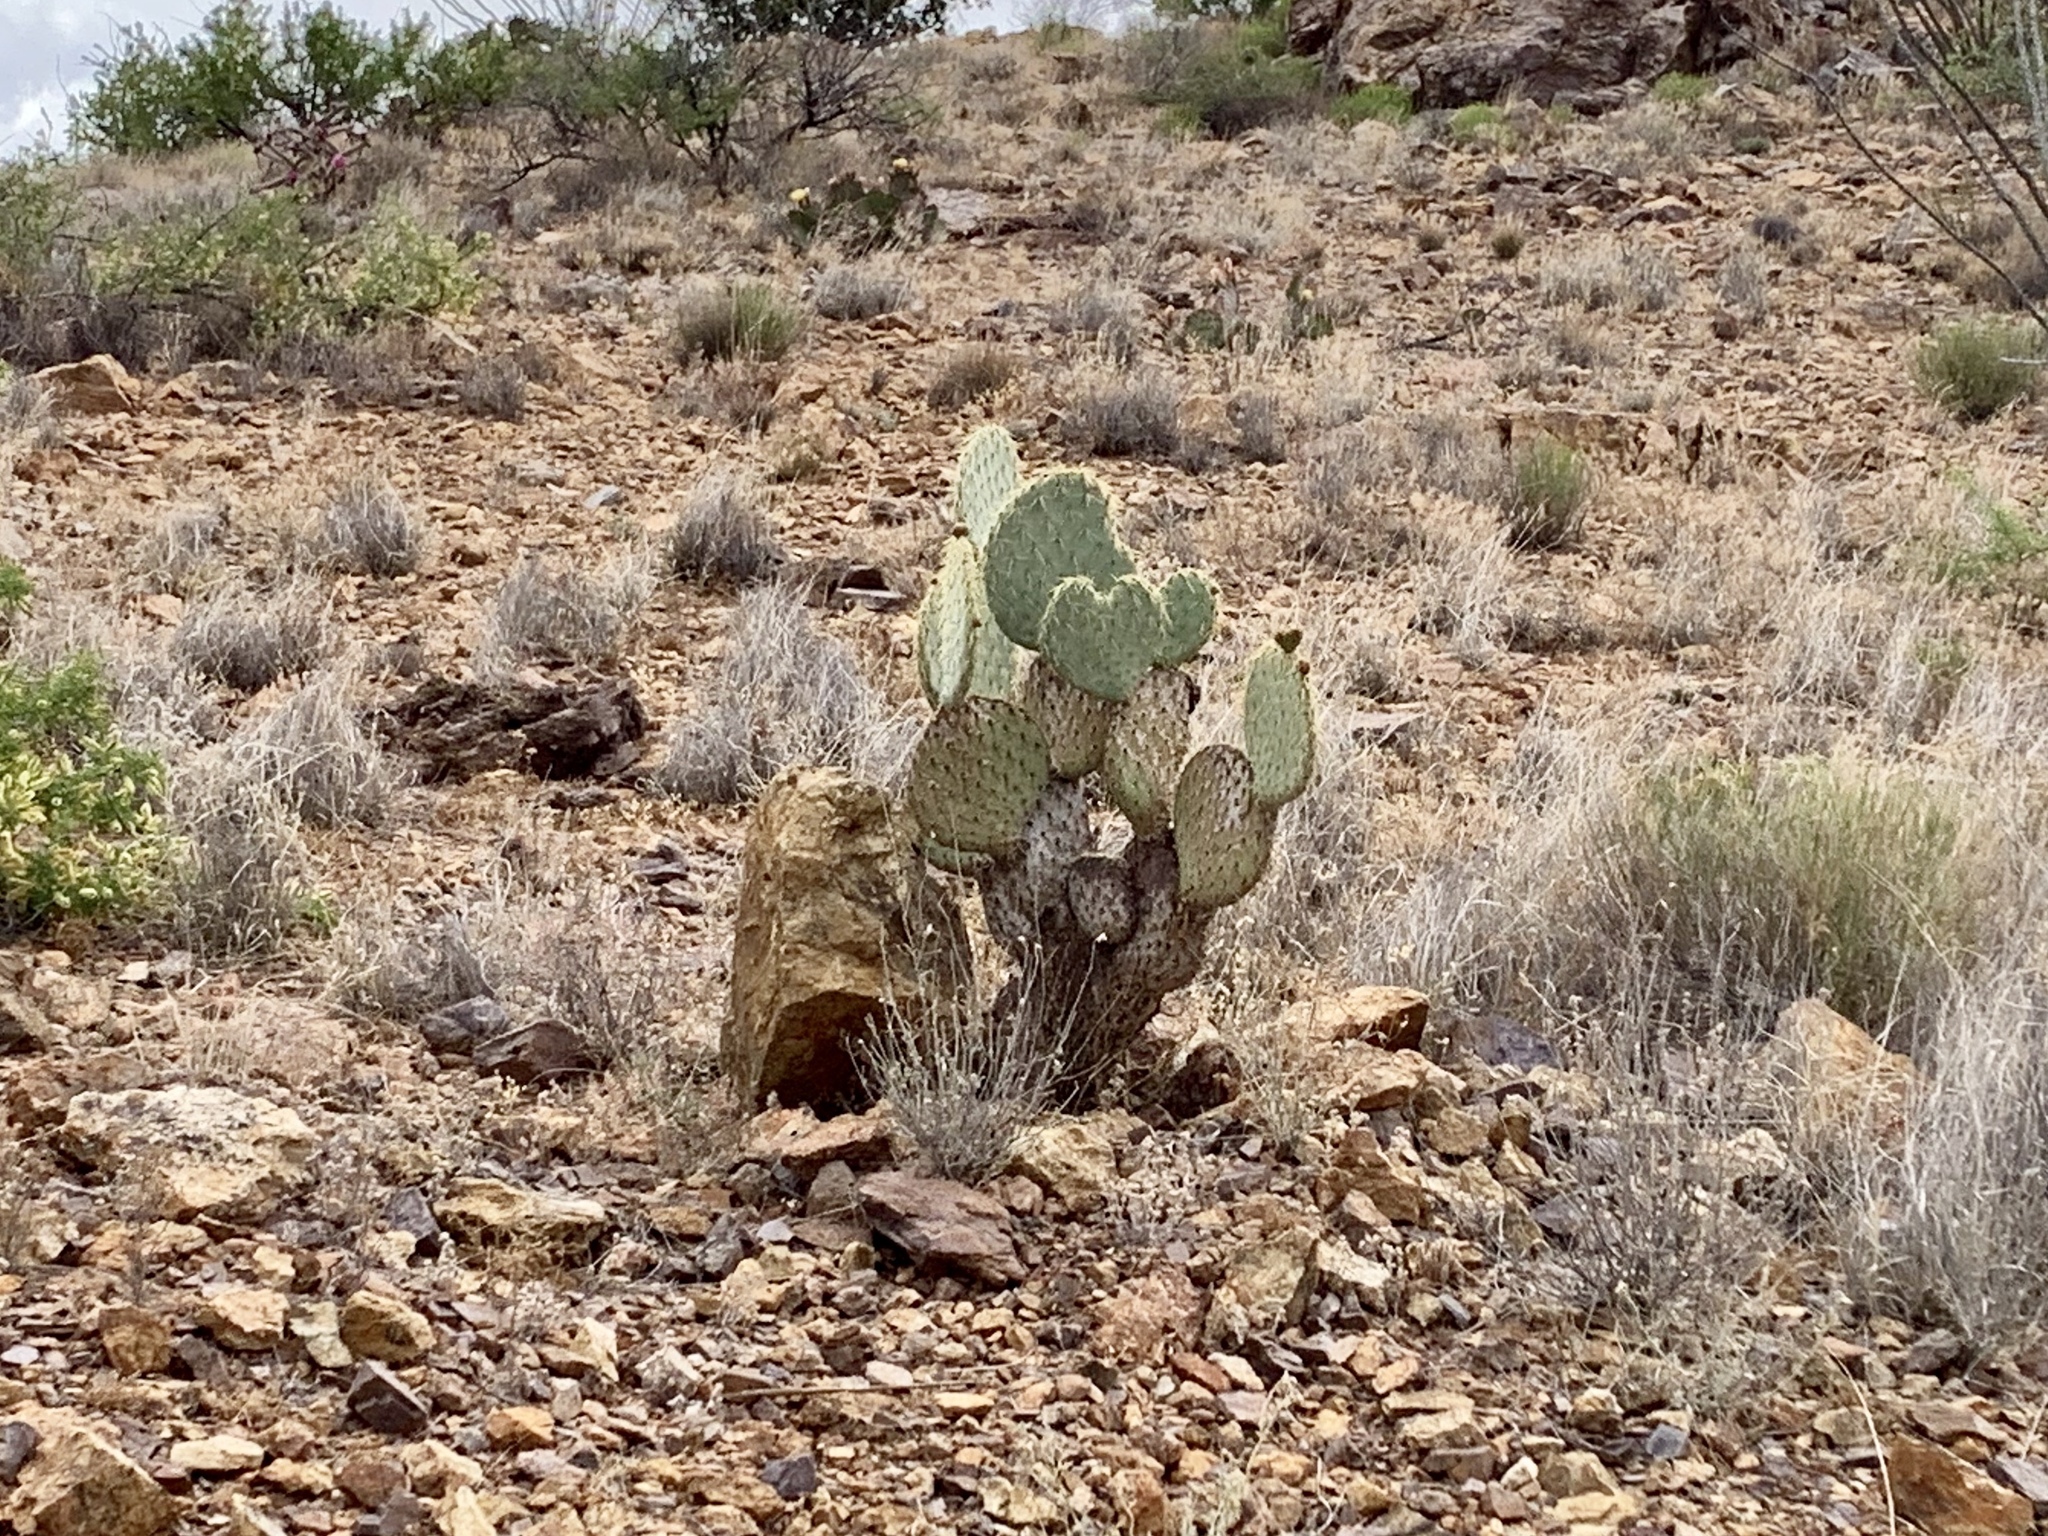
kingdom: Plantae
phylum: Tracheophyta
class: Magnoliopsida
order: Caryophyllales
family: Cactaceae
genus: Opuntia
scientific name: Opuntia chlorotica
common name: Dollar-joint prickly-pear
